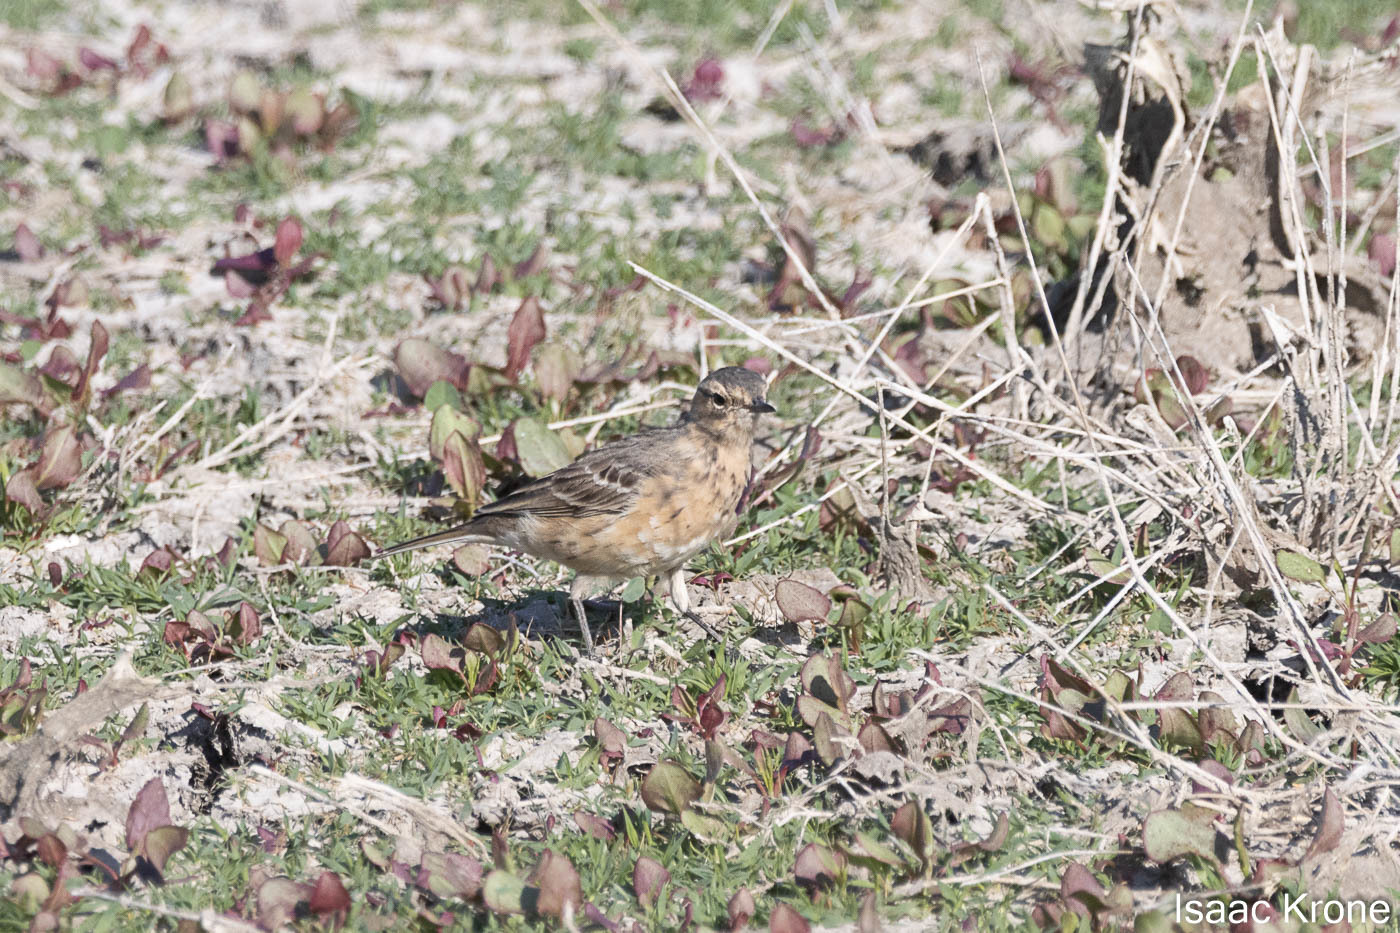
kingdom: Animalia
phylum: Chordata
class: Aves
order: Passeriformes
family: Motacillidae
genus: Anthus
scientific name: Anthus rubescens
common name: Buff-bellied pipit
